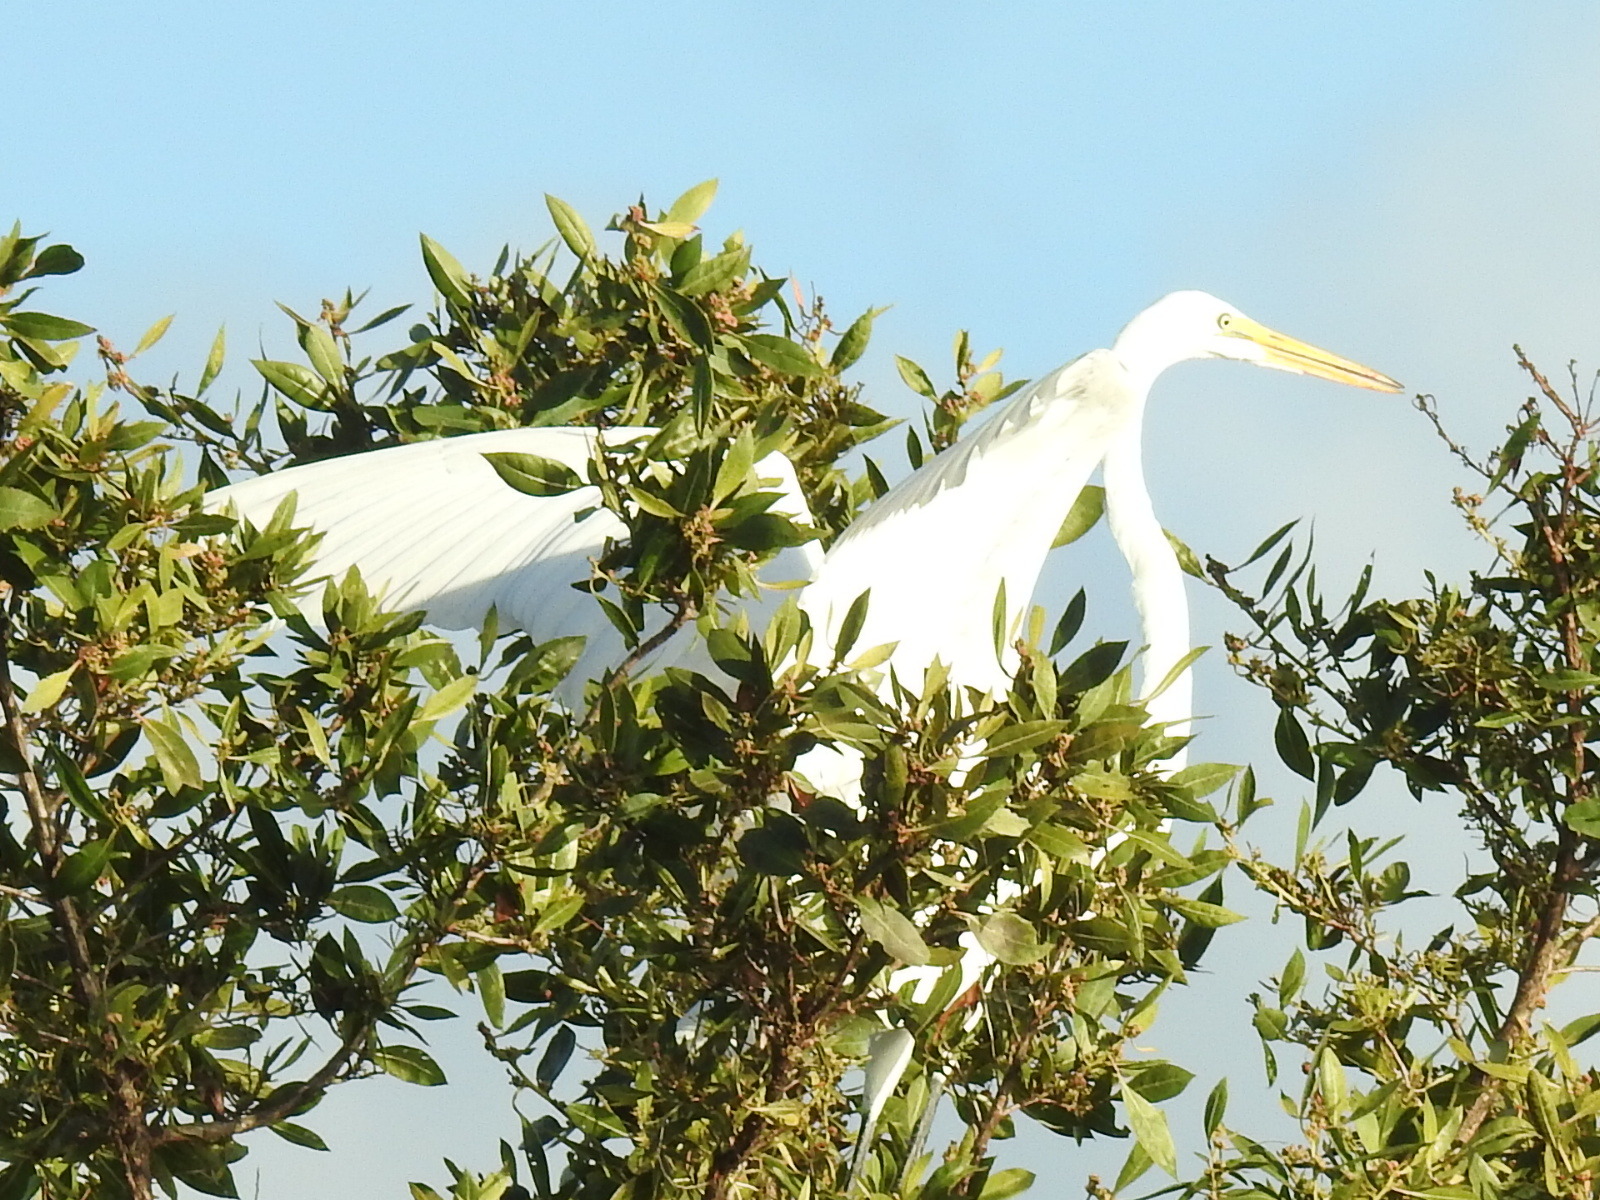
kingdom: Animalia
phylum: Chordata
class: Aves
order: Pelecaniformes
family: Ardeidae
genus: Ardea
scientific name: Ardea alba
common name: Great egret
